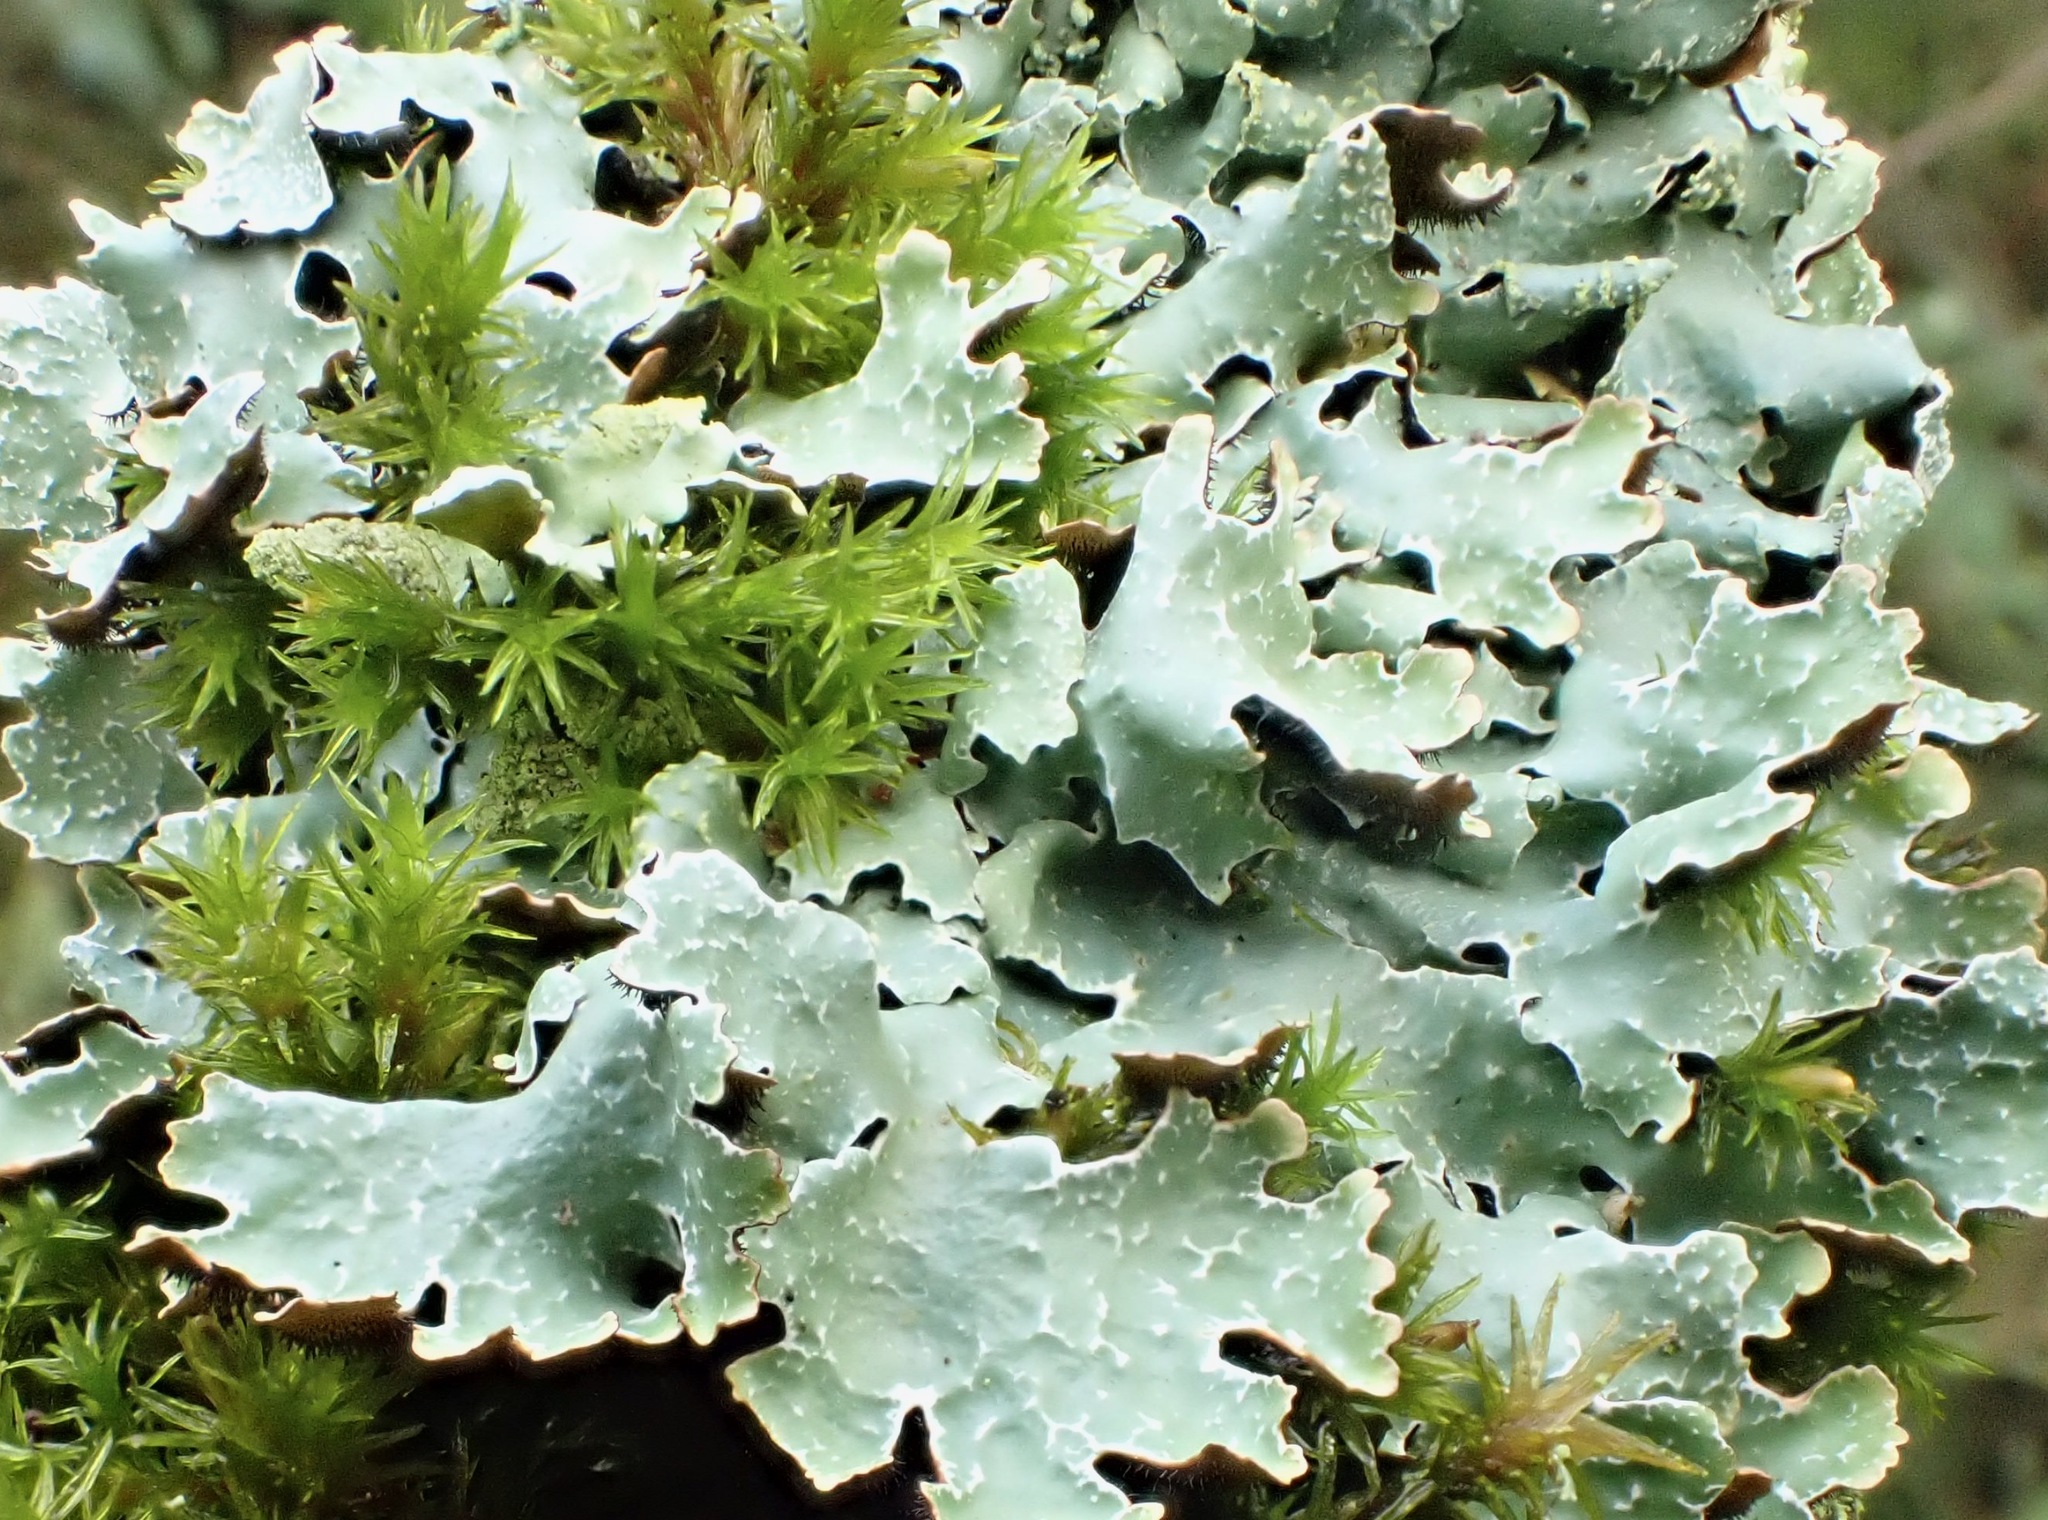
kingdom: Fungi
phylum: Ascomycota
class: Lecanoromycetes
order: Lecanorales
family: Parmeliaceae
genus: Parmelia
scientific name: Parmelia sulcata
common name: Netted shield lichen
